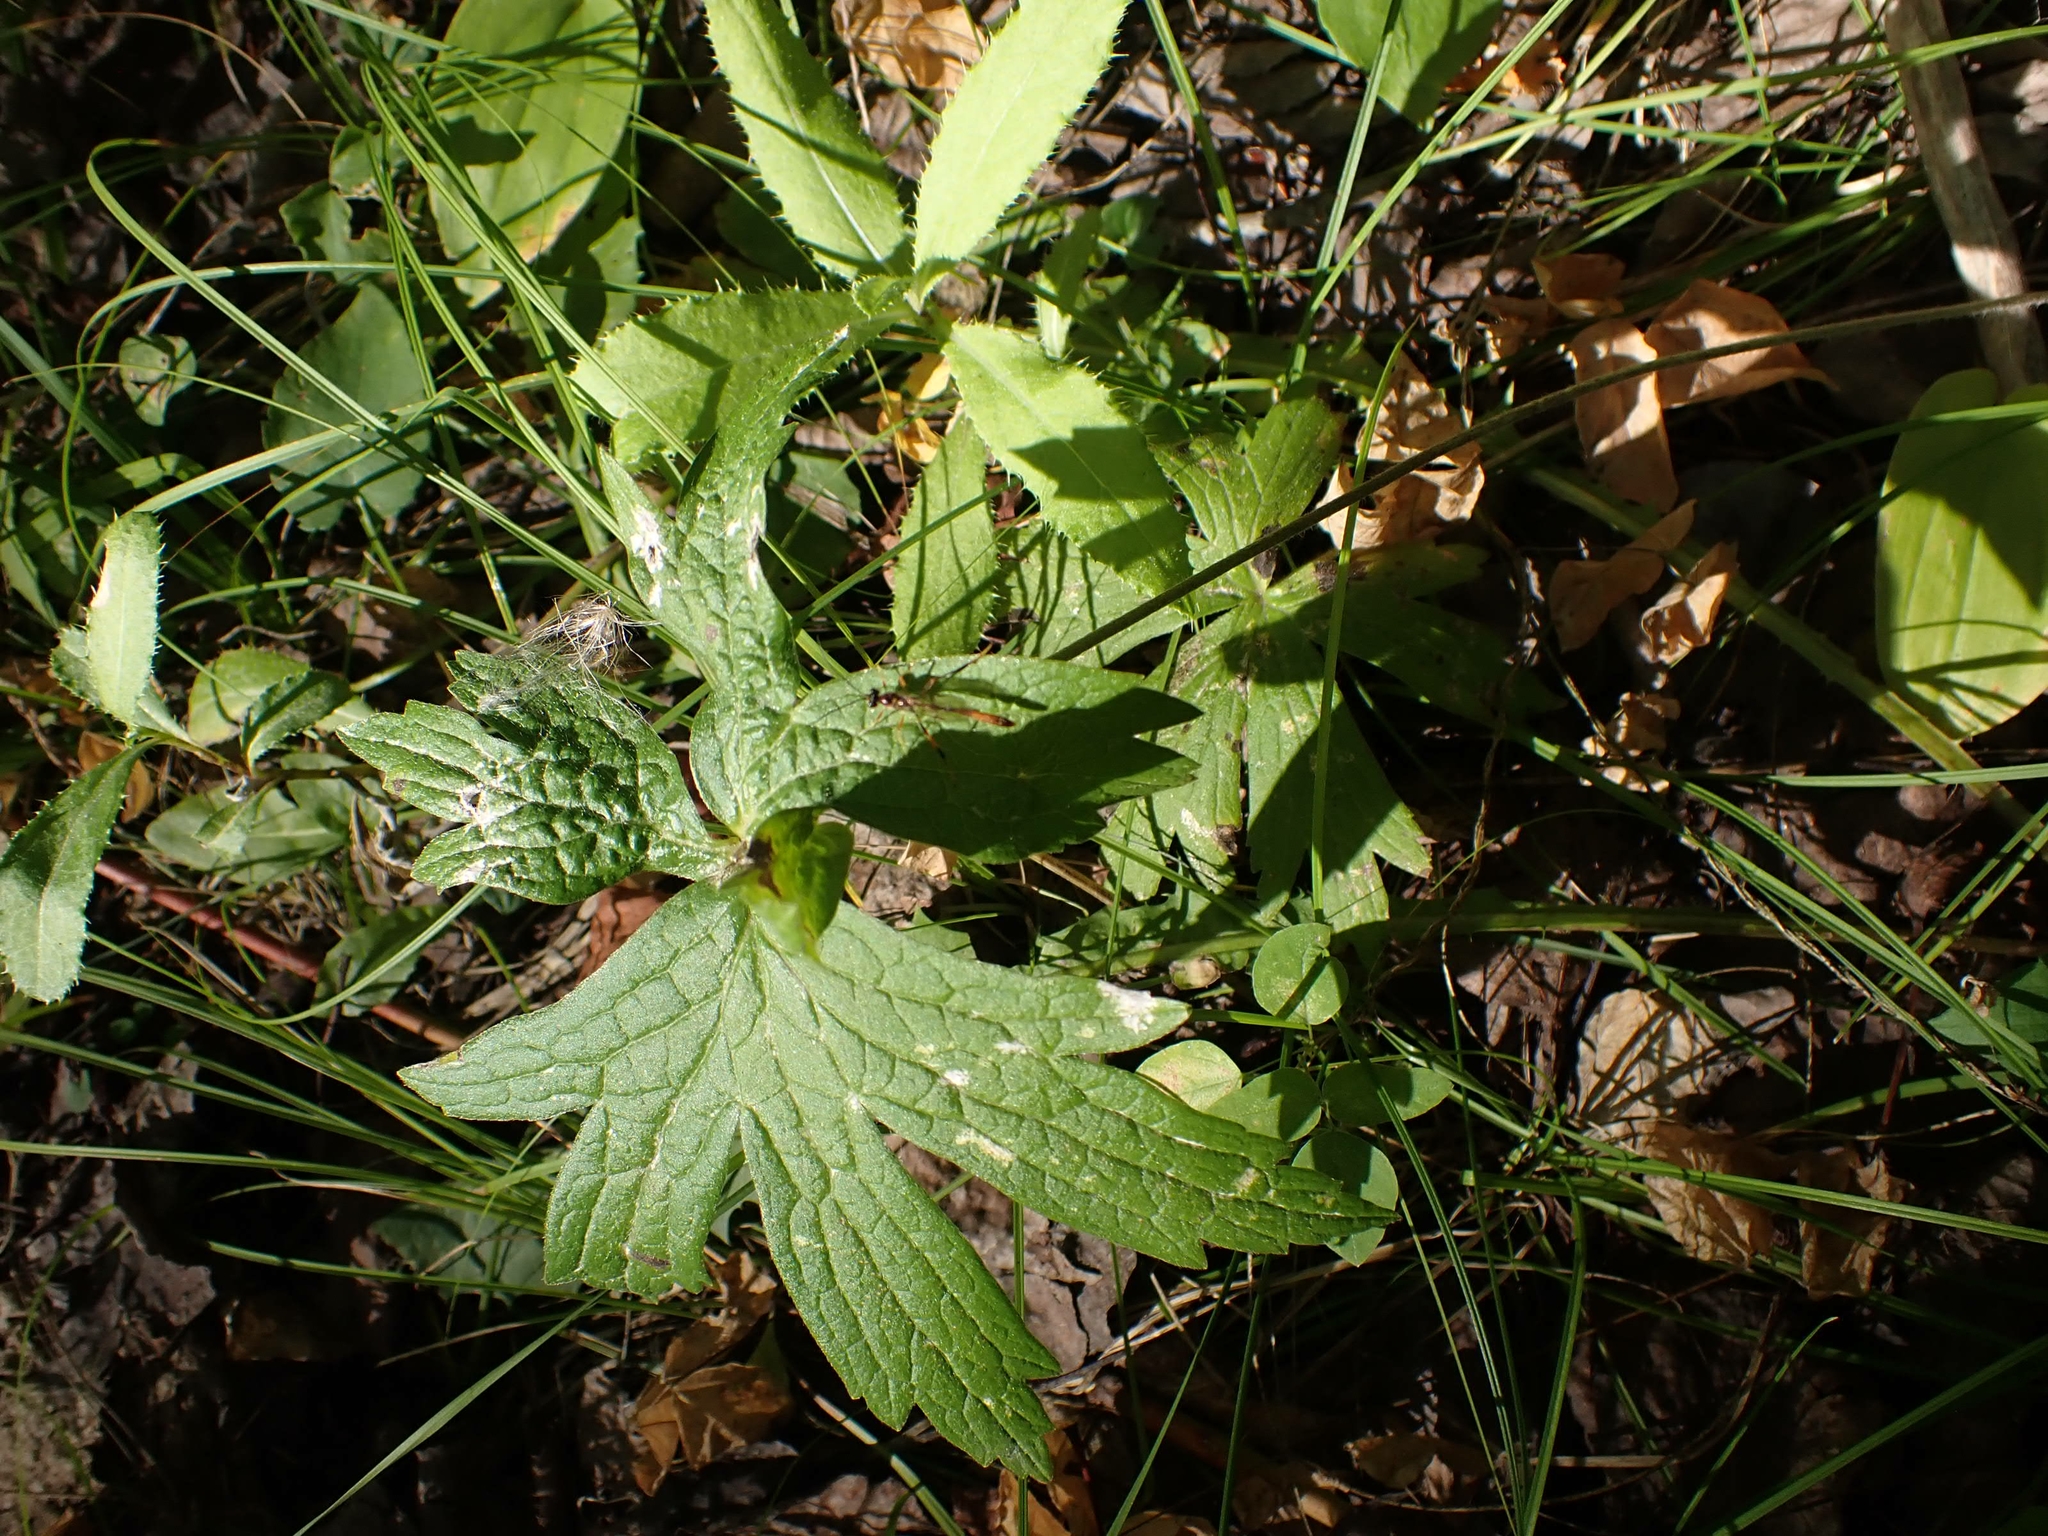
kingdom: Plantae
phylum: Tracheophyta
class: Magnoliopsida
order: Ranunculales
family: Ranunculaceae
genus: Anemonastrum
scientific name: Anemonastrum canadense
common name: Canada anemone
